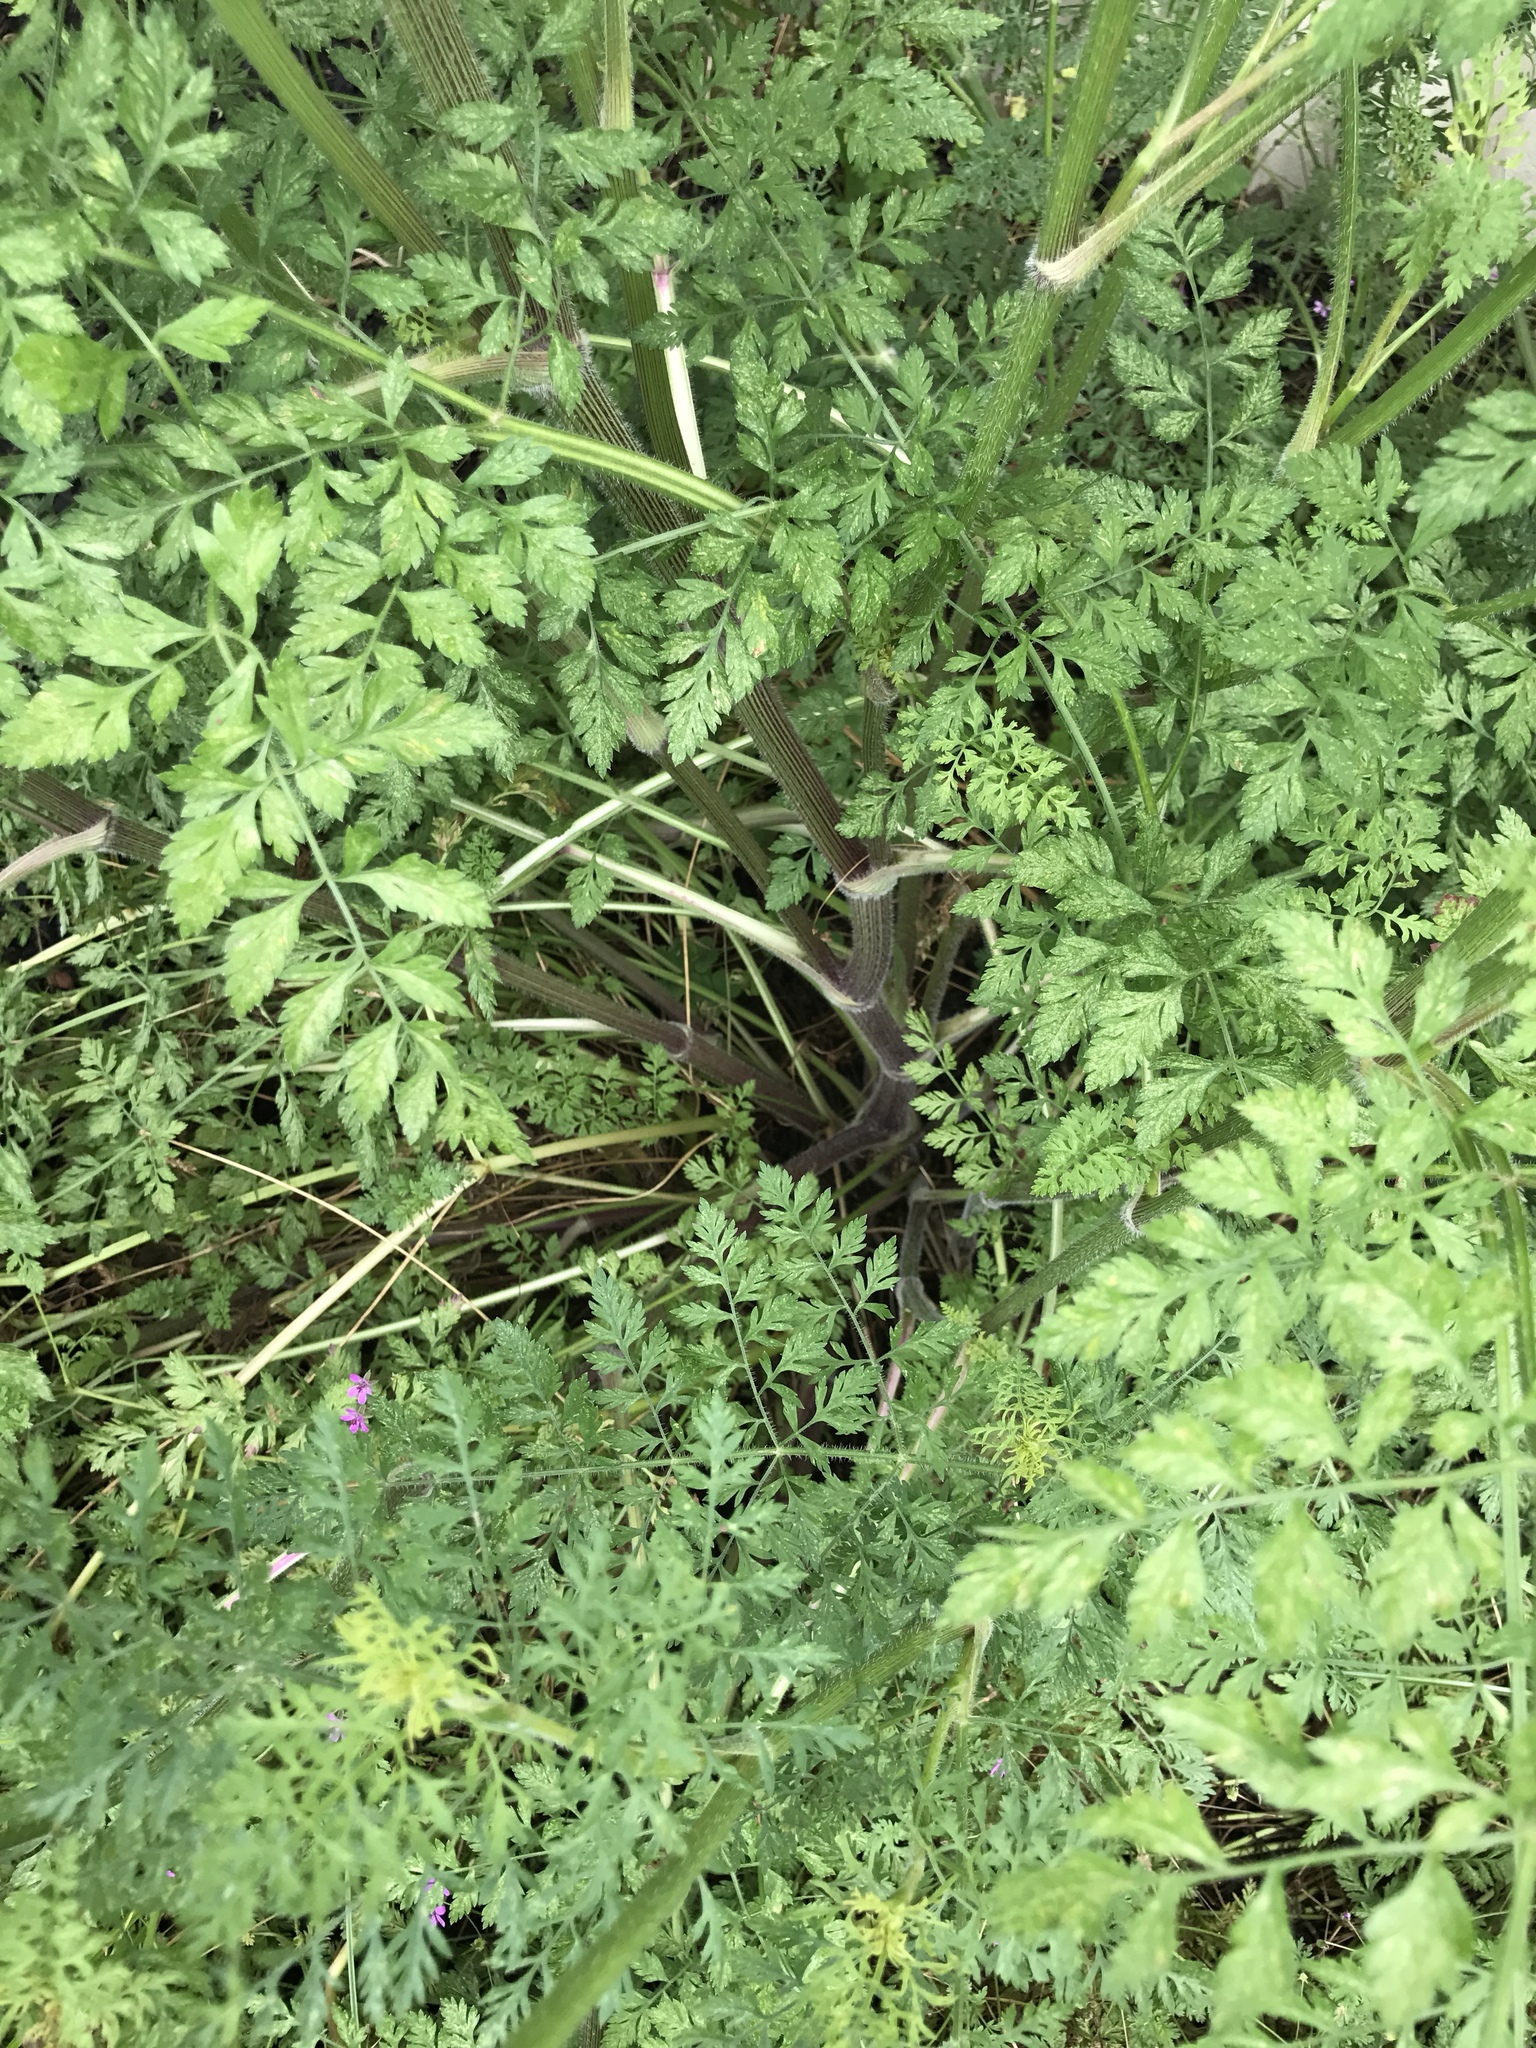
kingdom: Plantae
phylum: Tracheophyta
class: Magnoliopsida
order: Apiales
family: Apiaceae
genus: Daucus
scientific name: Daucus carota
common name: Wild carrot
